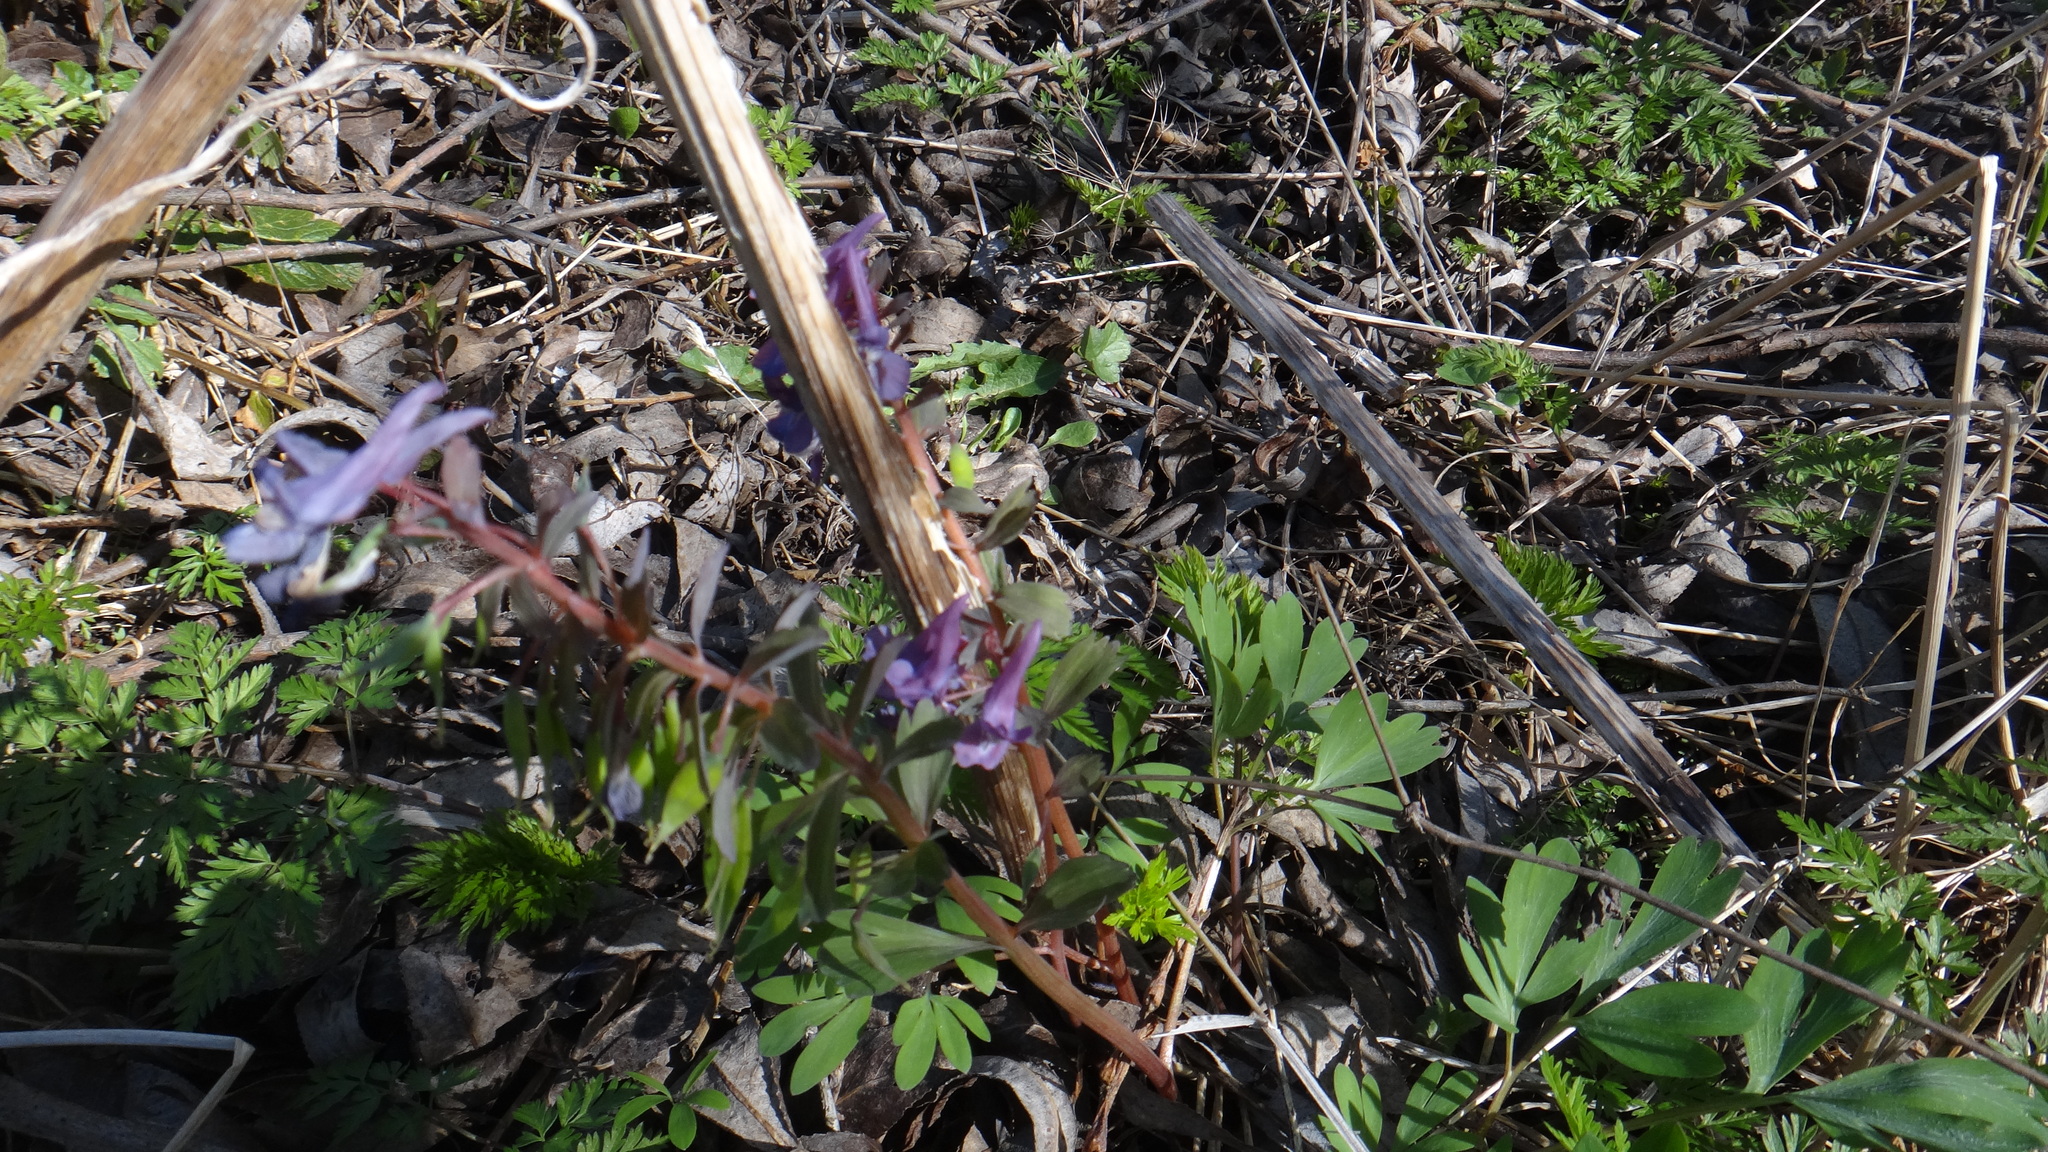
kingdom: Plantae
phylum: Tracheophyta
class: Magnoliopsida
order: Ranunculales
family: Papaveraceae
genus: Corydalis
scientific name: Corydalis solida
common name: Bird-in-a-bush
